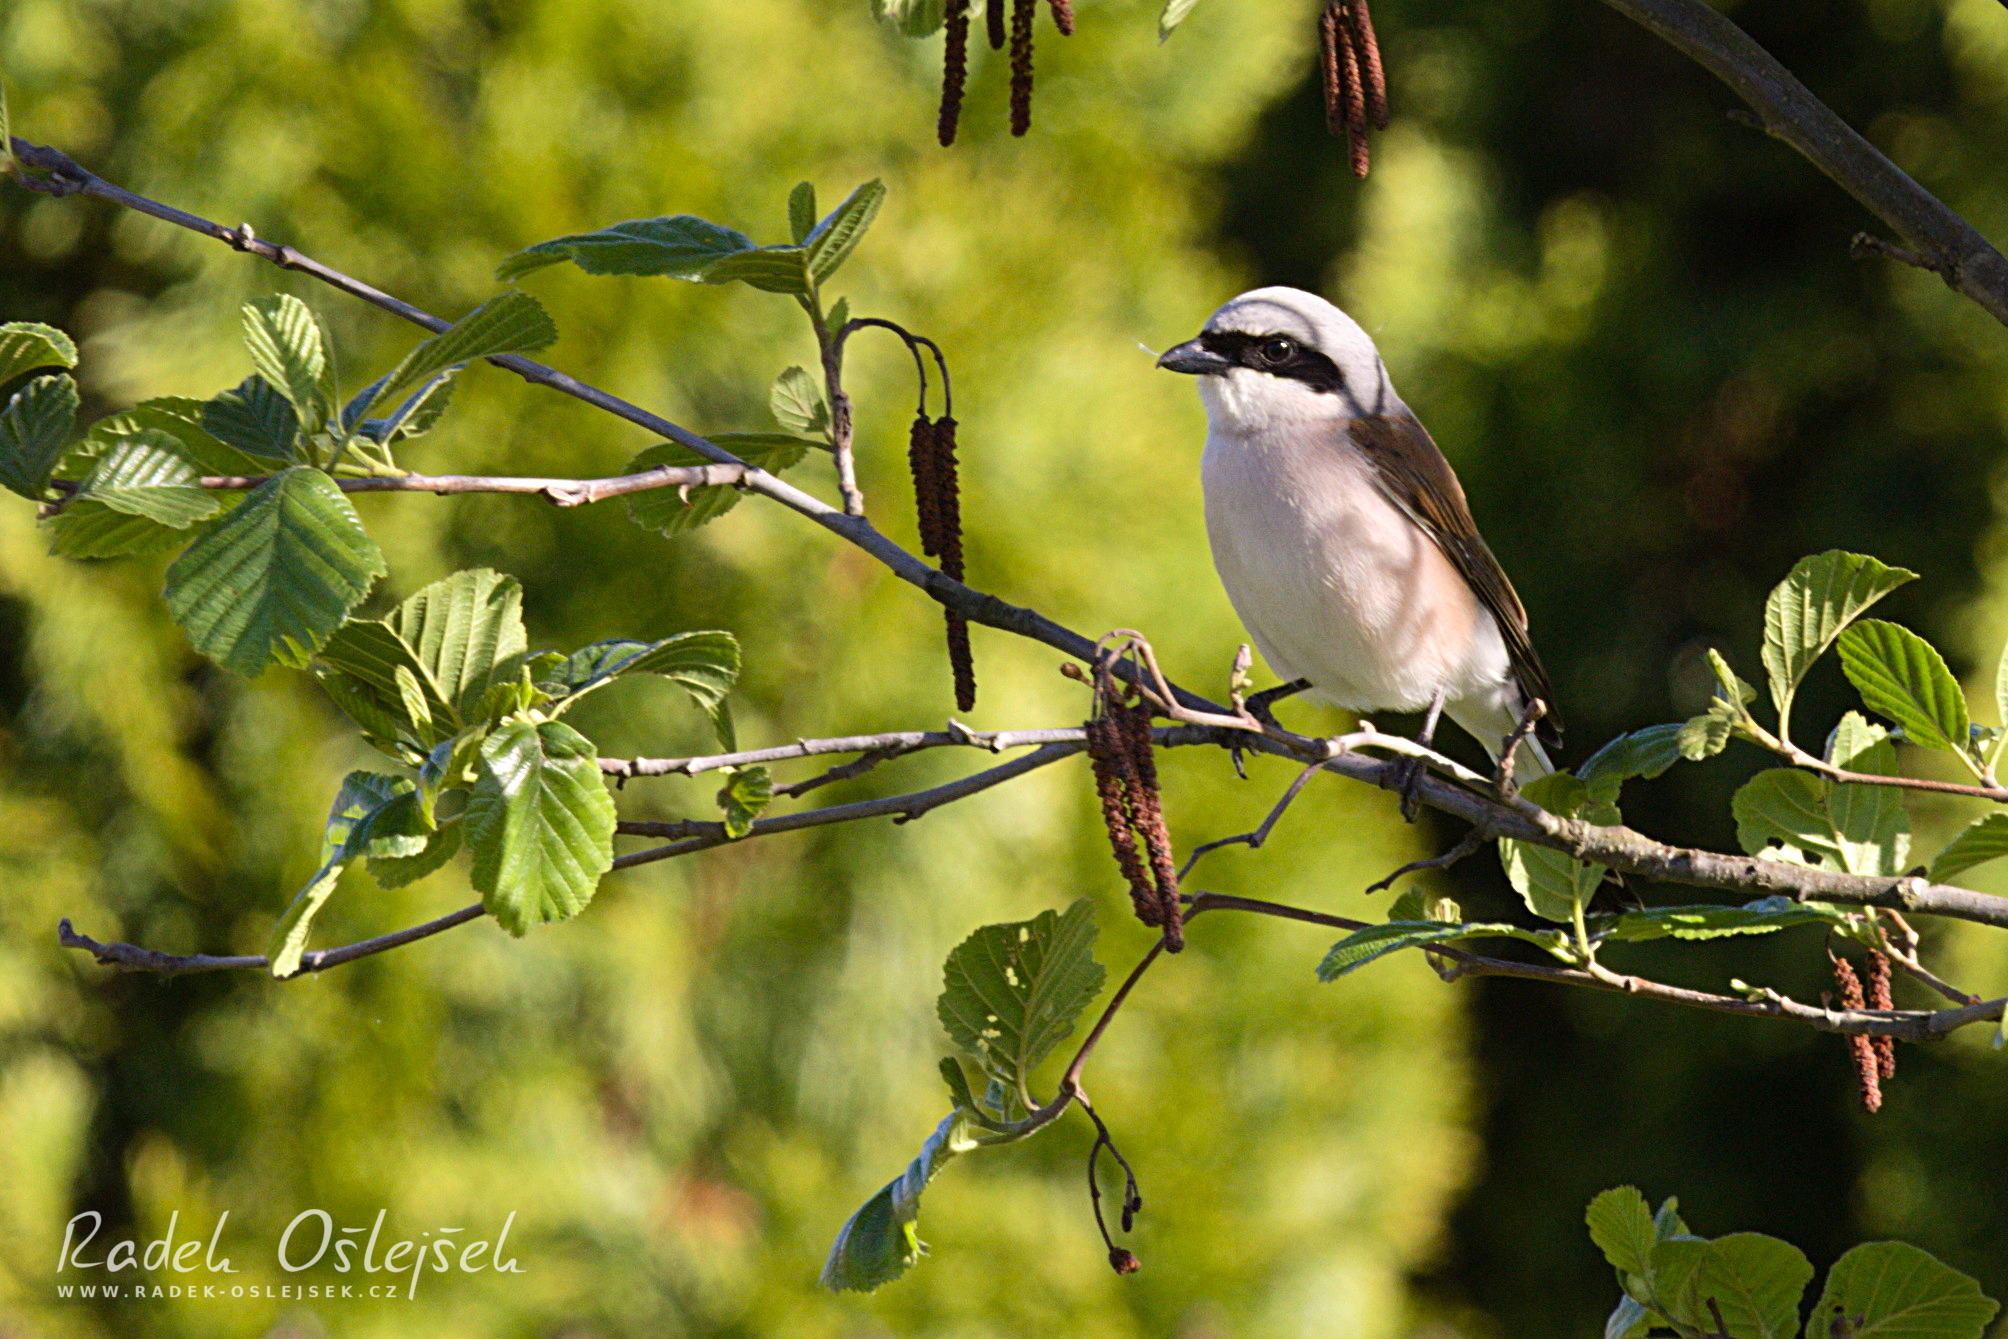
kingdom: Animalia
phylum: Chordata
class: Aves
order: Passeriformes
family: Laniidae
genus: Lanius
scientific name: Lanius collurio
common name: Red-backed shrike
